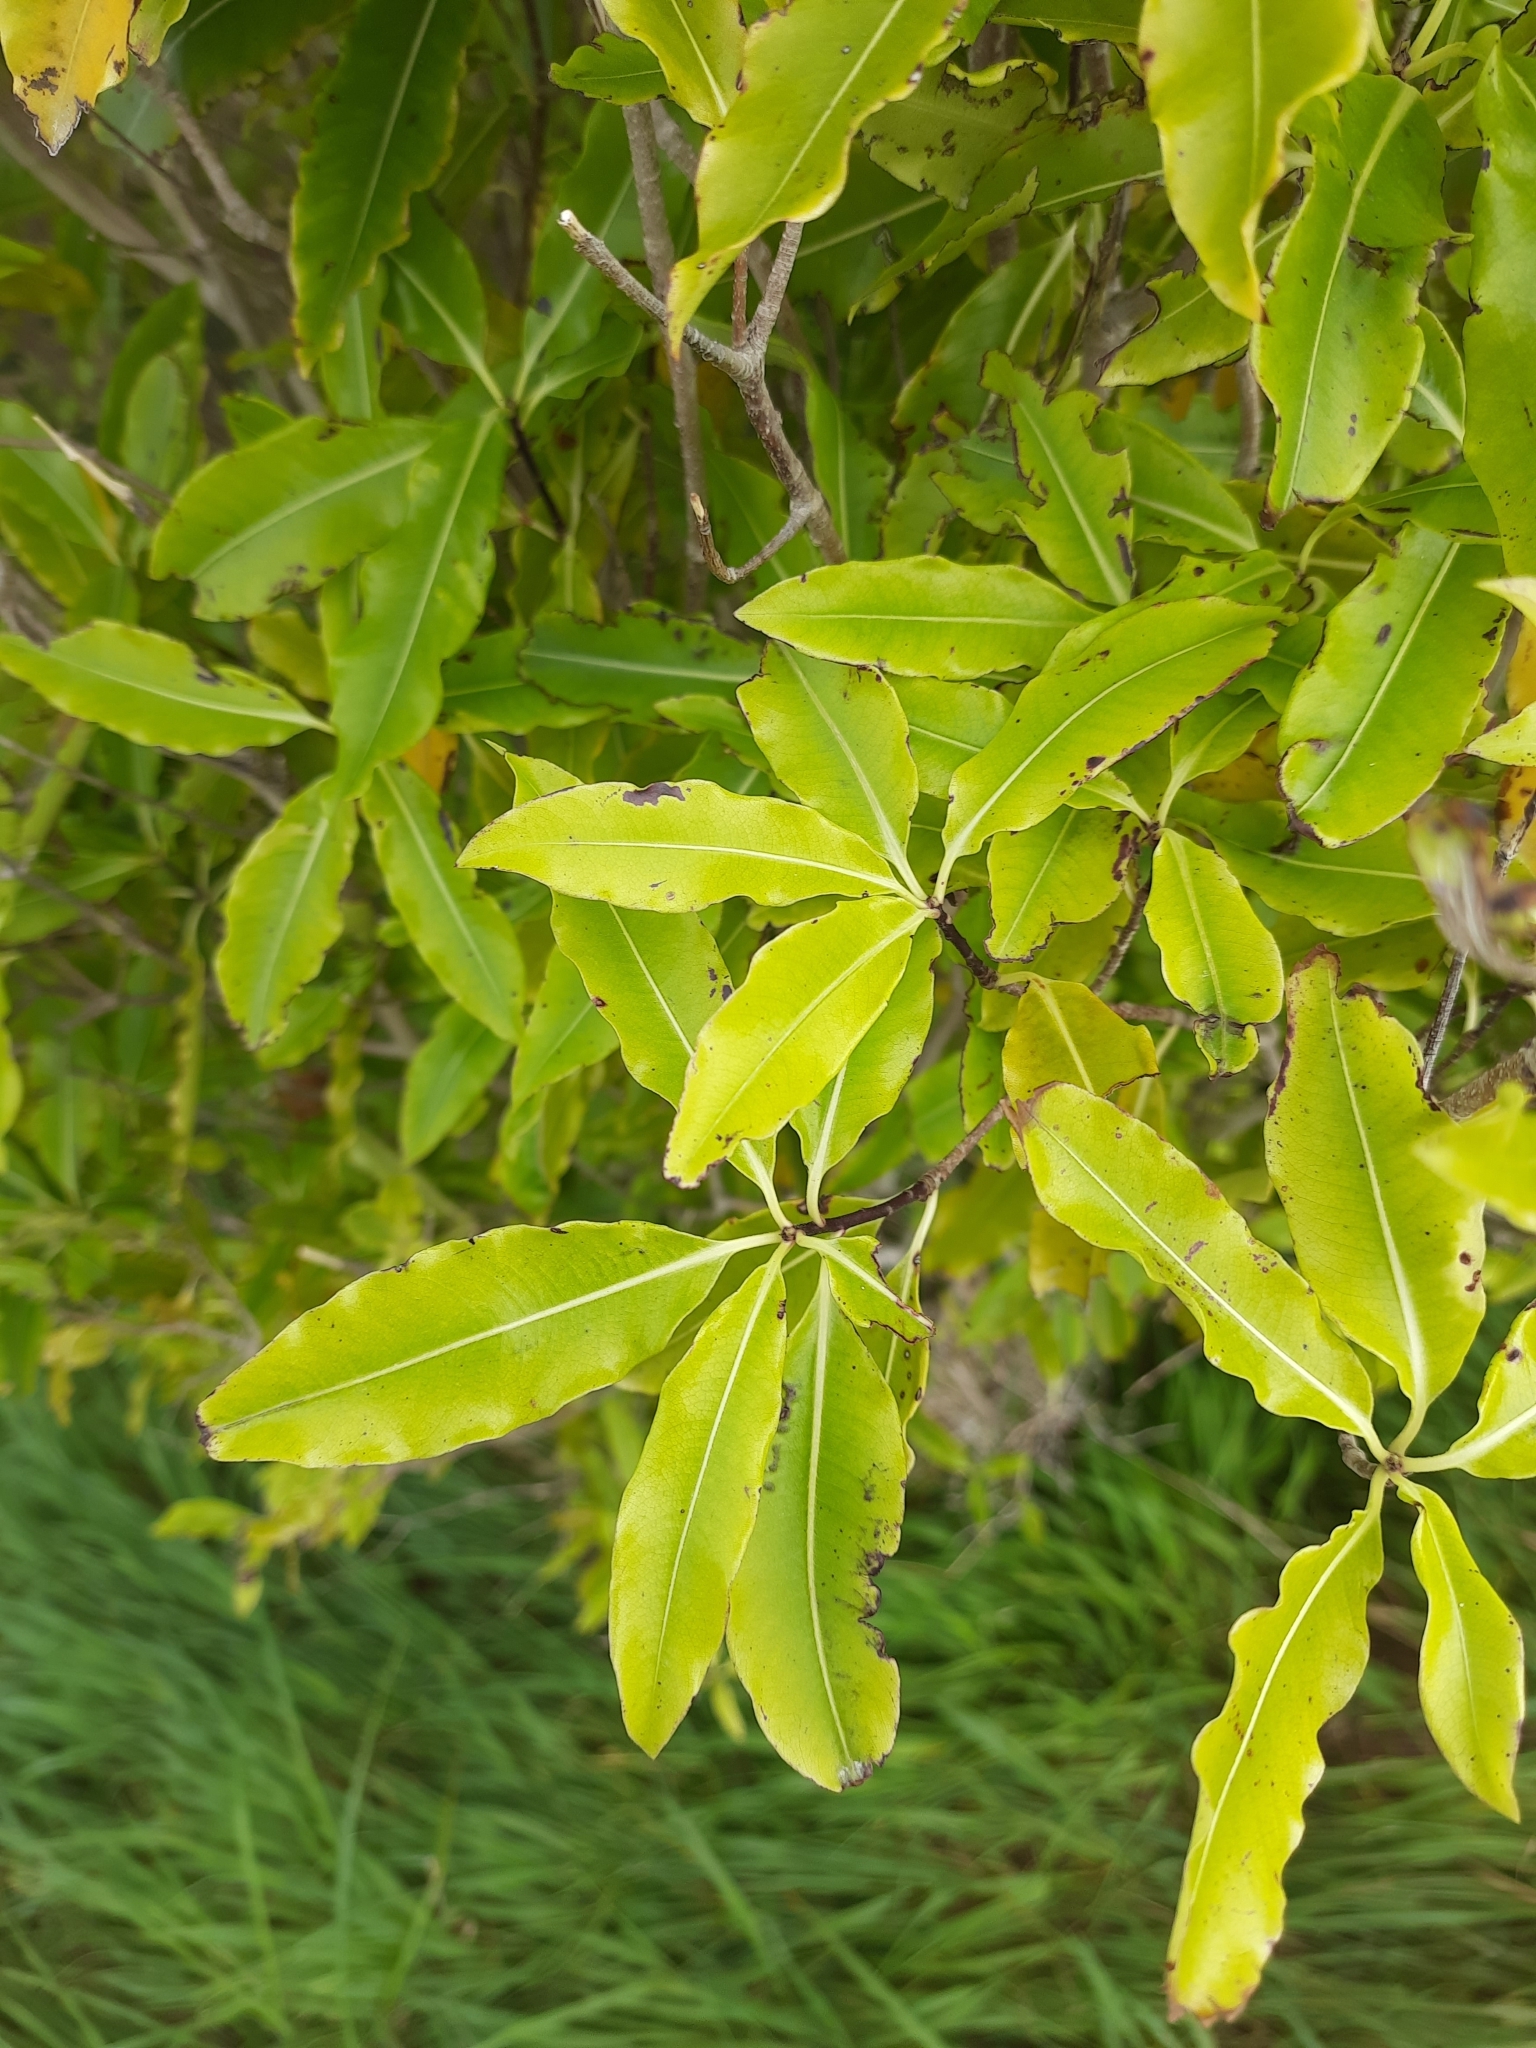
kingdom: Plantae
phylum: Tracheophyta
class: Magnoliopsida
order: Apiales
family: Pittosporaceae
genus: Pittosporum
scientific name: Pittosporum eugenioides
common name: Lemonwood
